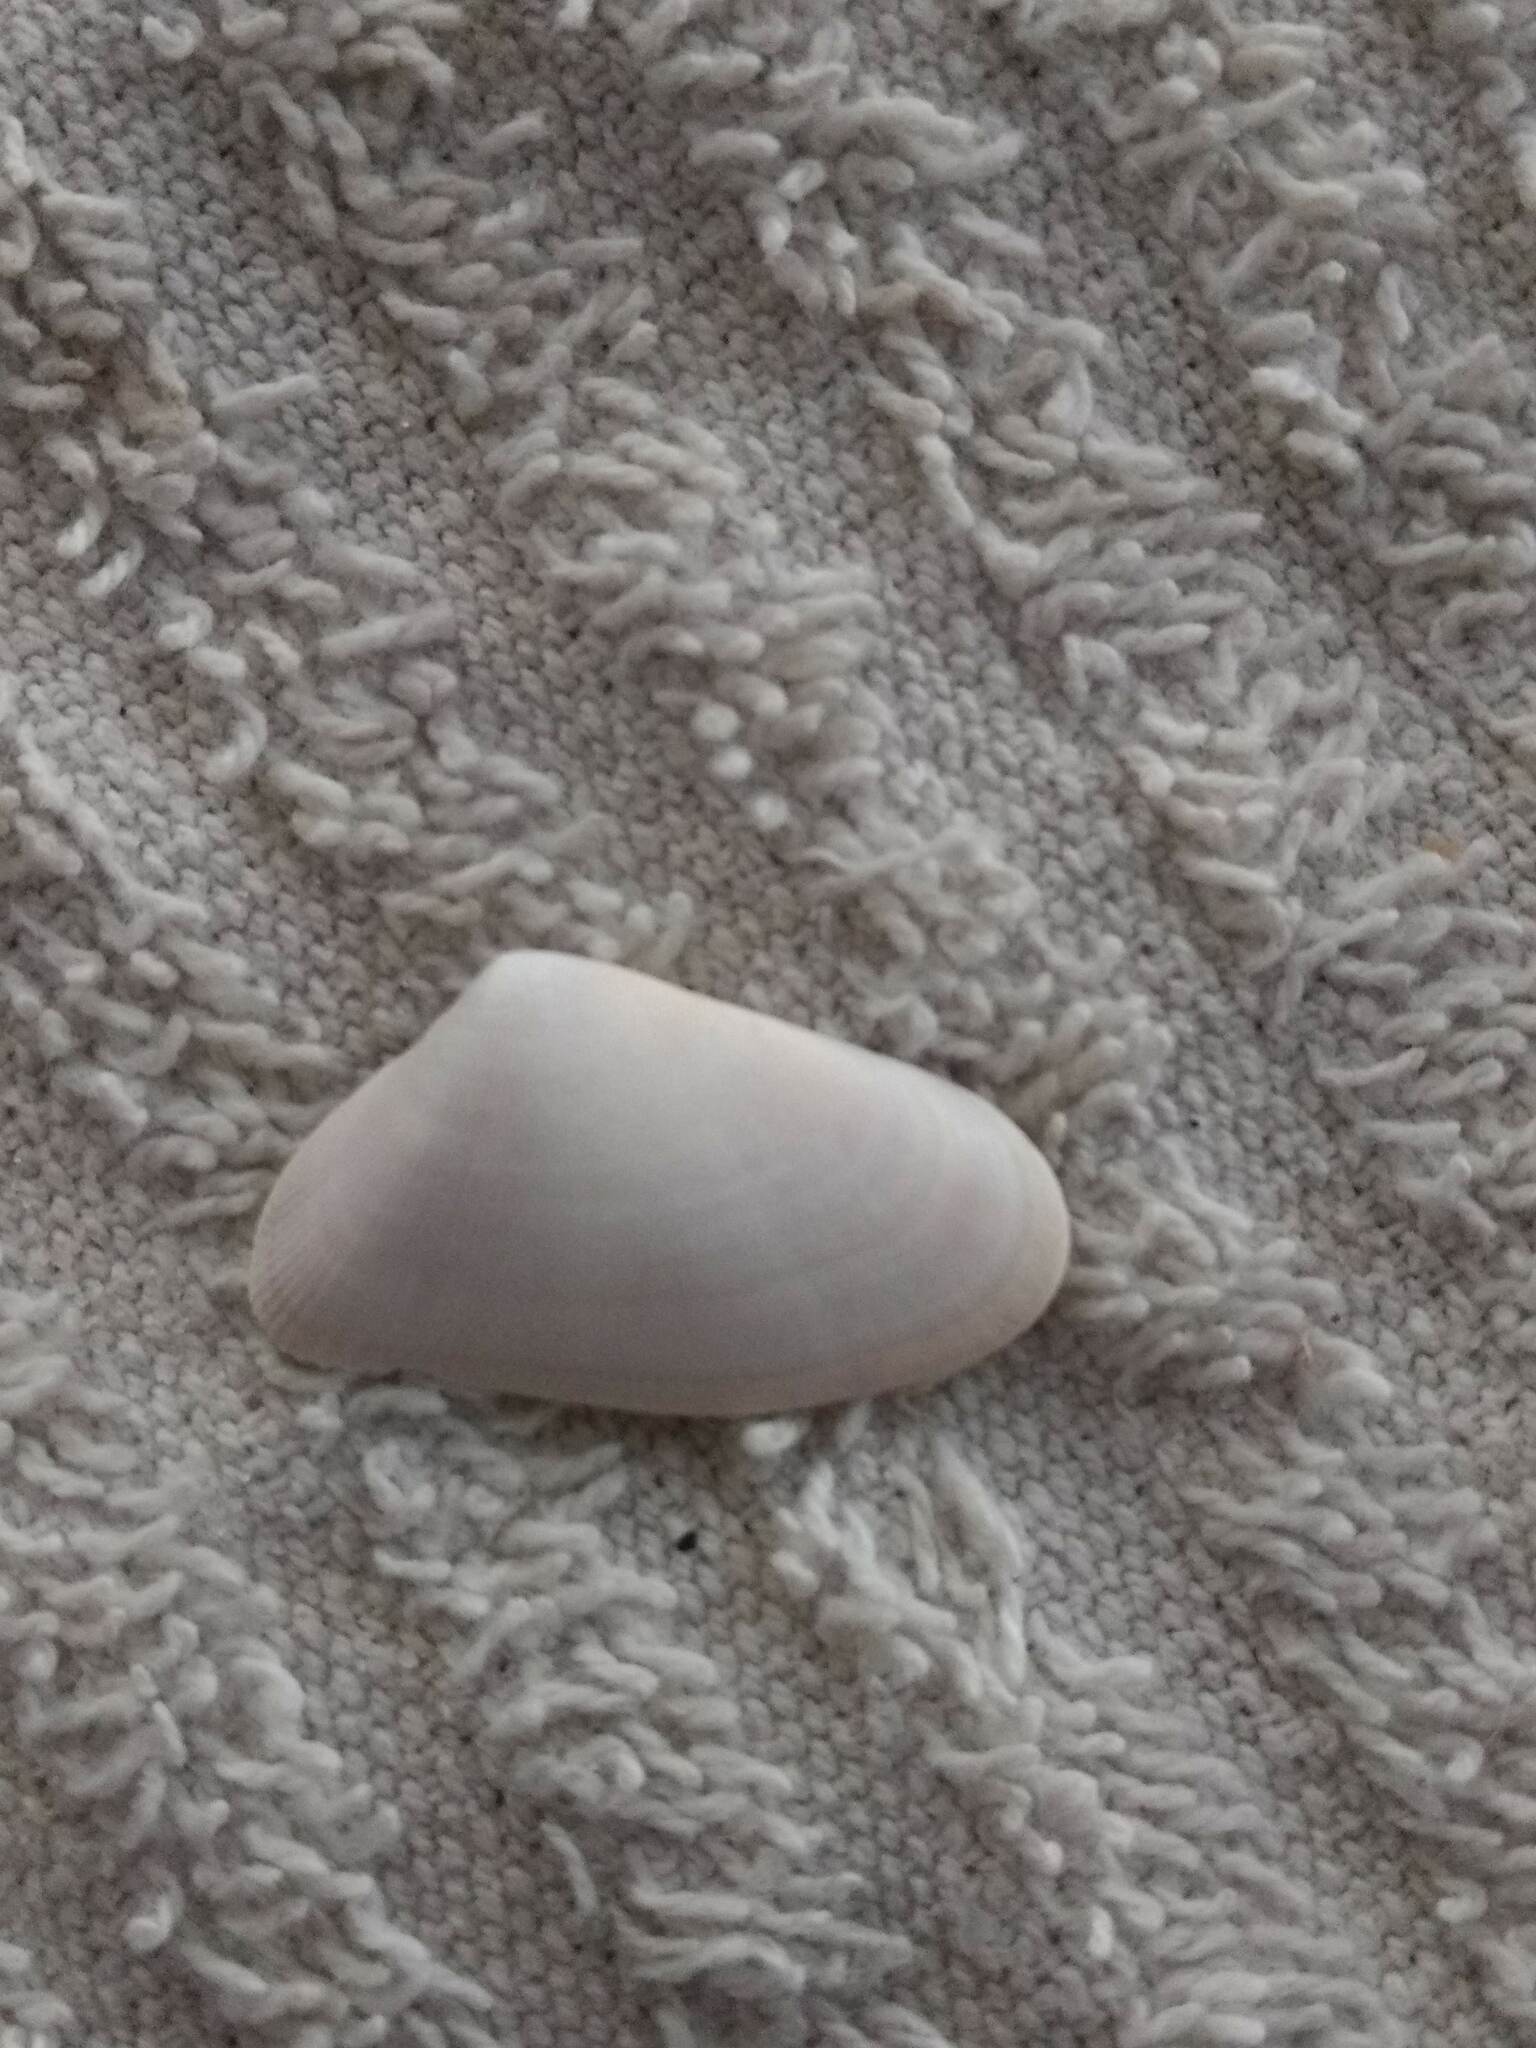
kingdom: Animalia
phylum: Mollusca
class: Bivalvia
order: Cardiida
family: Donacidae
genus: Donax
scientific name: Donax variabilis
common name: Butterfly shell
